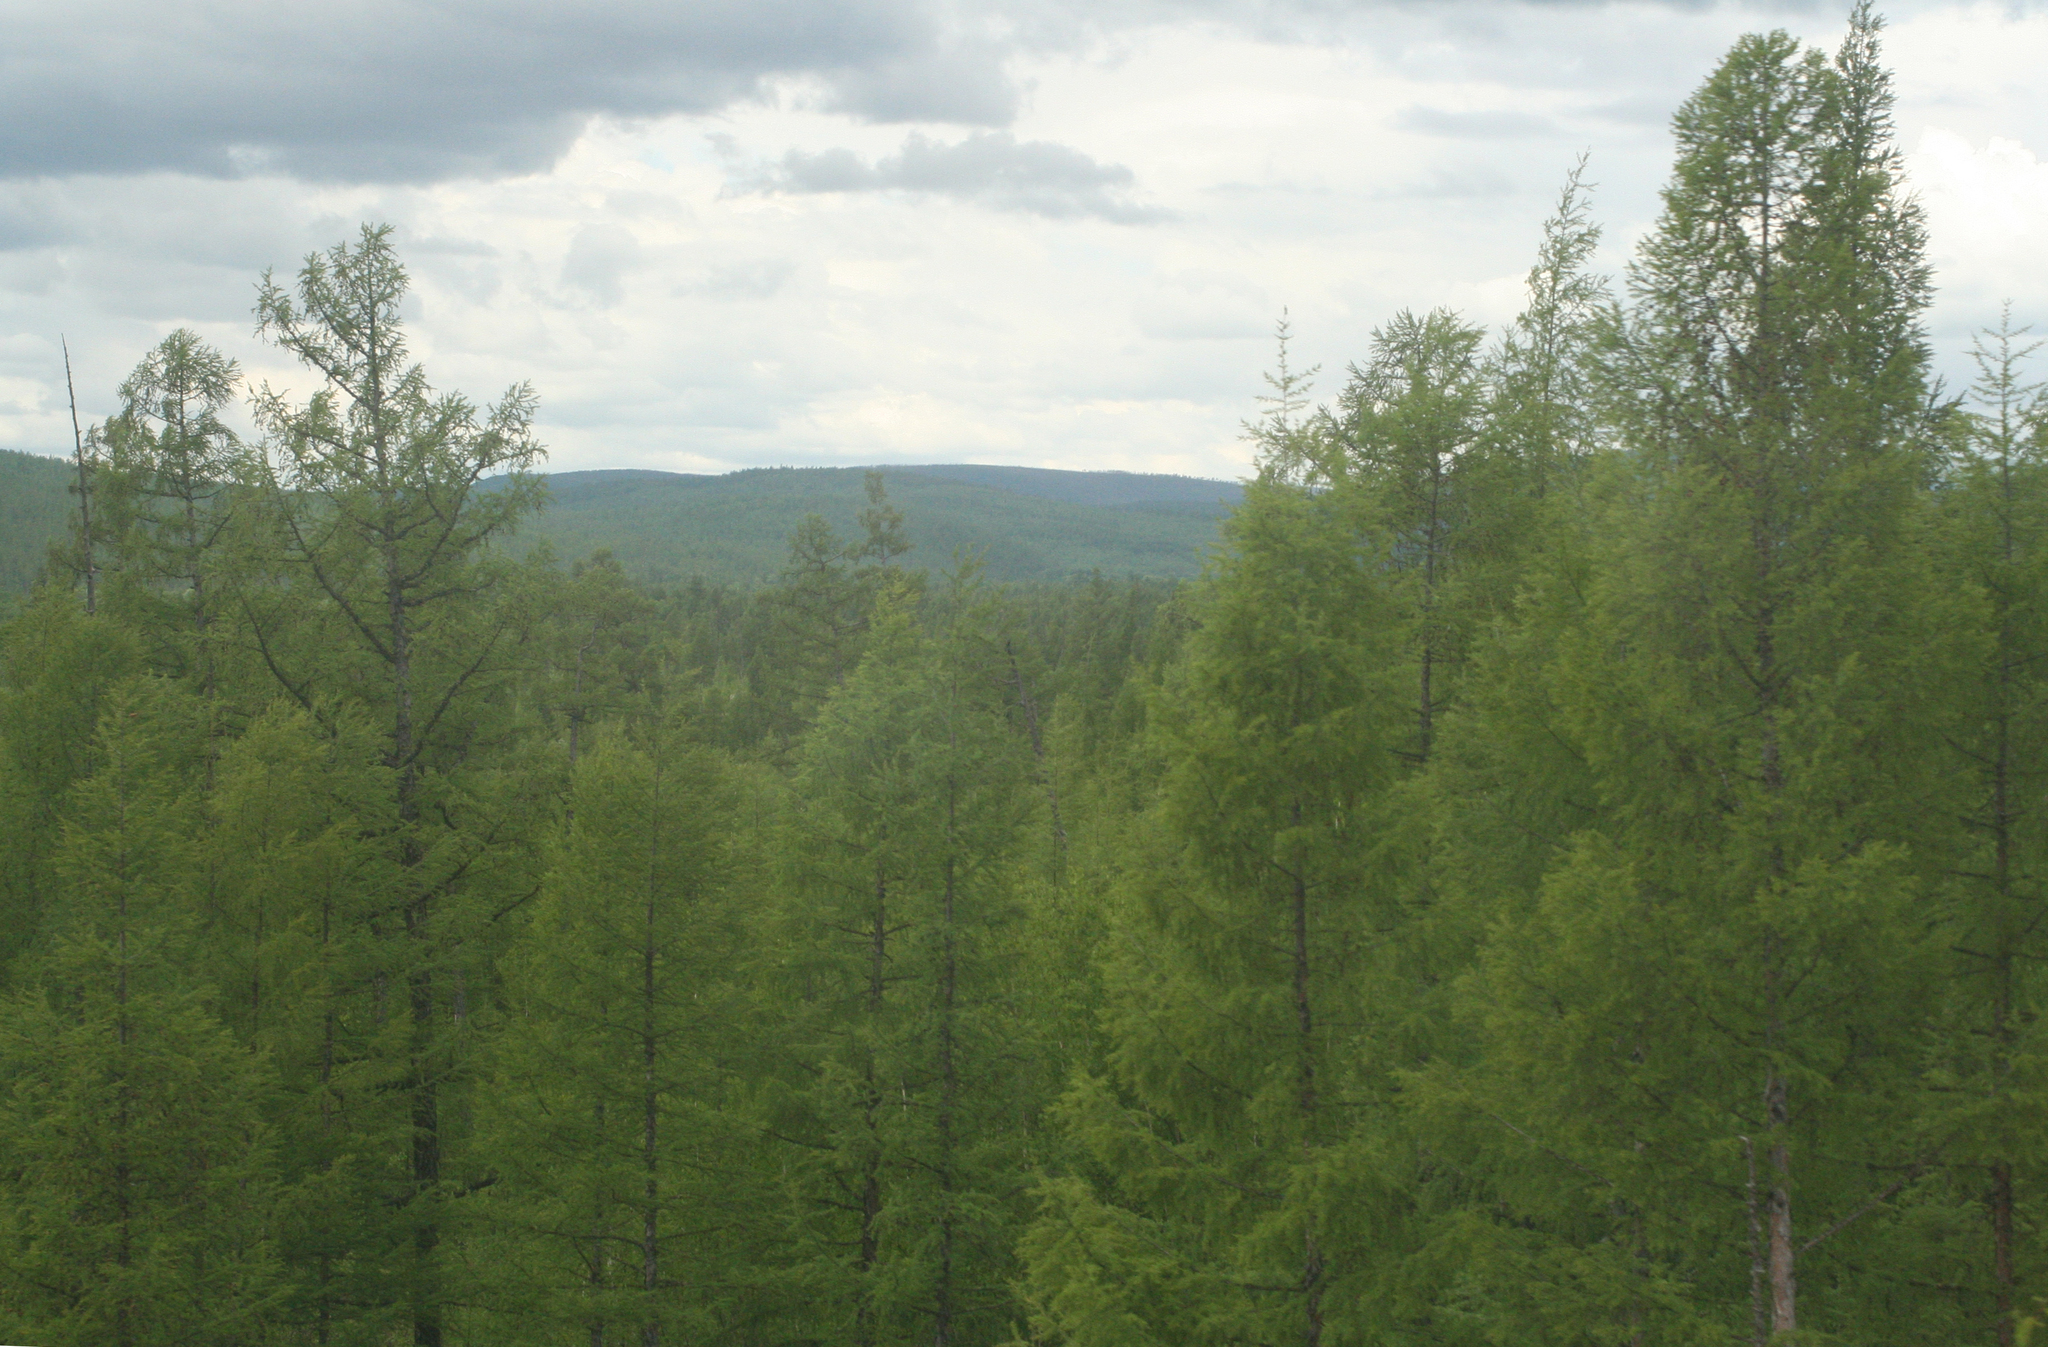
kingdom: Plantae
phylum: Tracheophyta
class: Pinopsida
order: Pinales
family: Pinaceae
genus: Larix
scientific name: Larix gmelinii
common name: Dahurian larch
